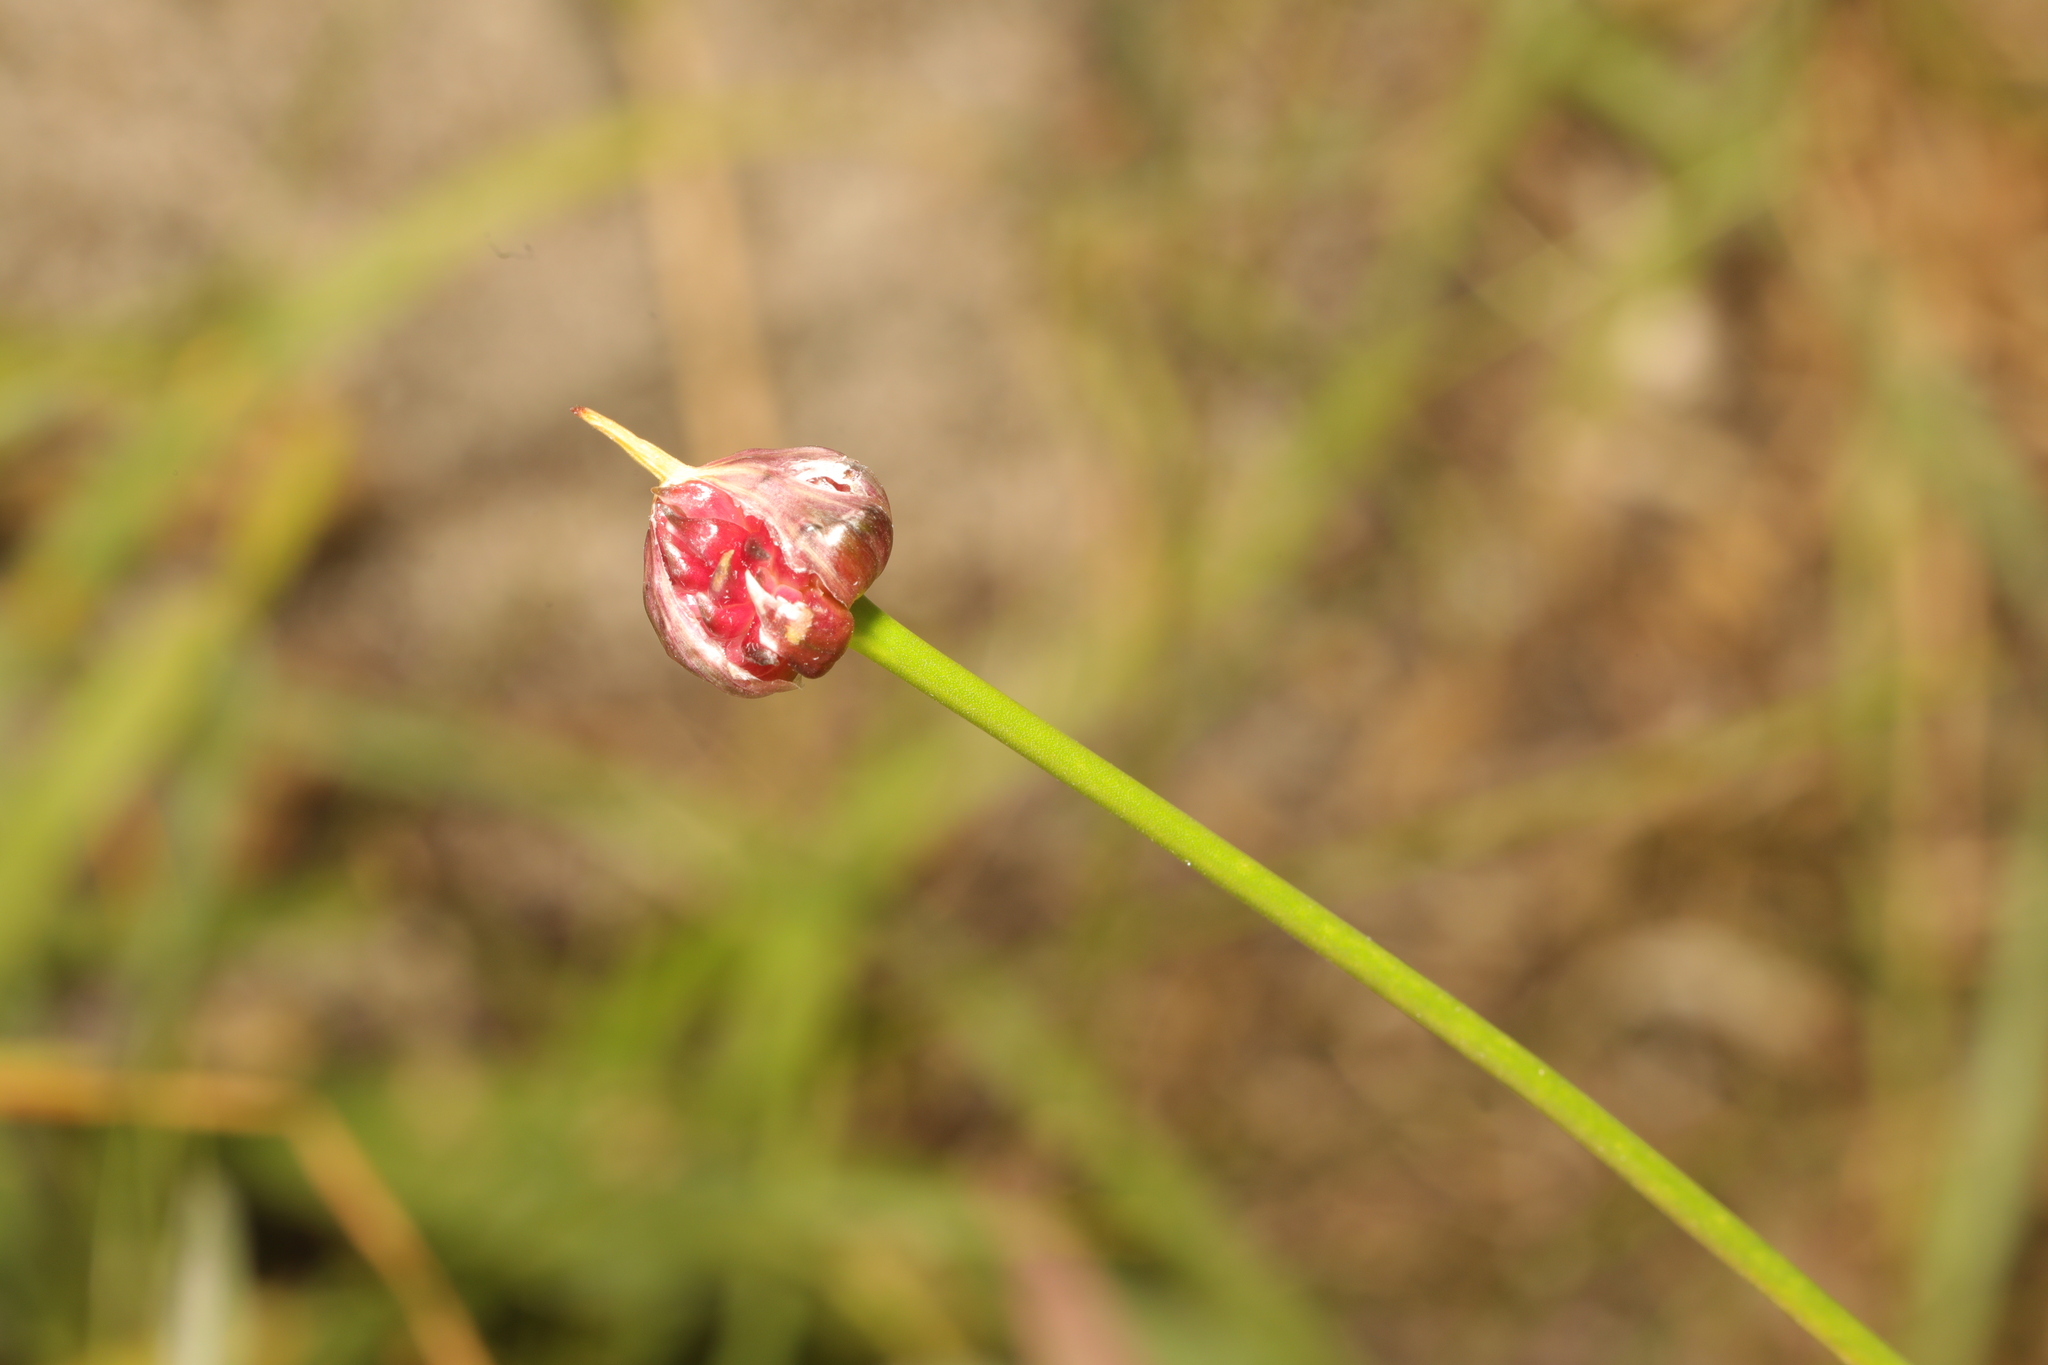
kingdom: Plantae
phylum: Tracheophyta
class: Liliopsida
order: Asparagales
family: Amaryllidaceae
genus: Allium
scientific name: Allium vineale
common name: Crow garlic
